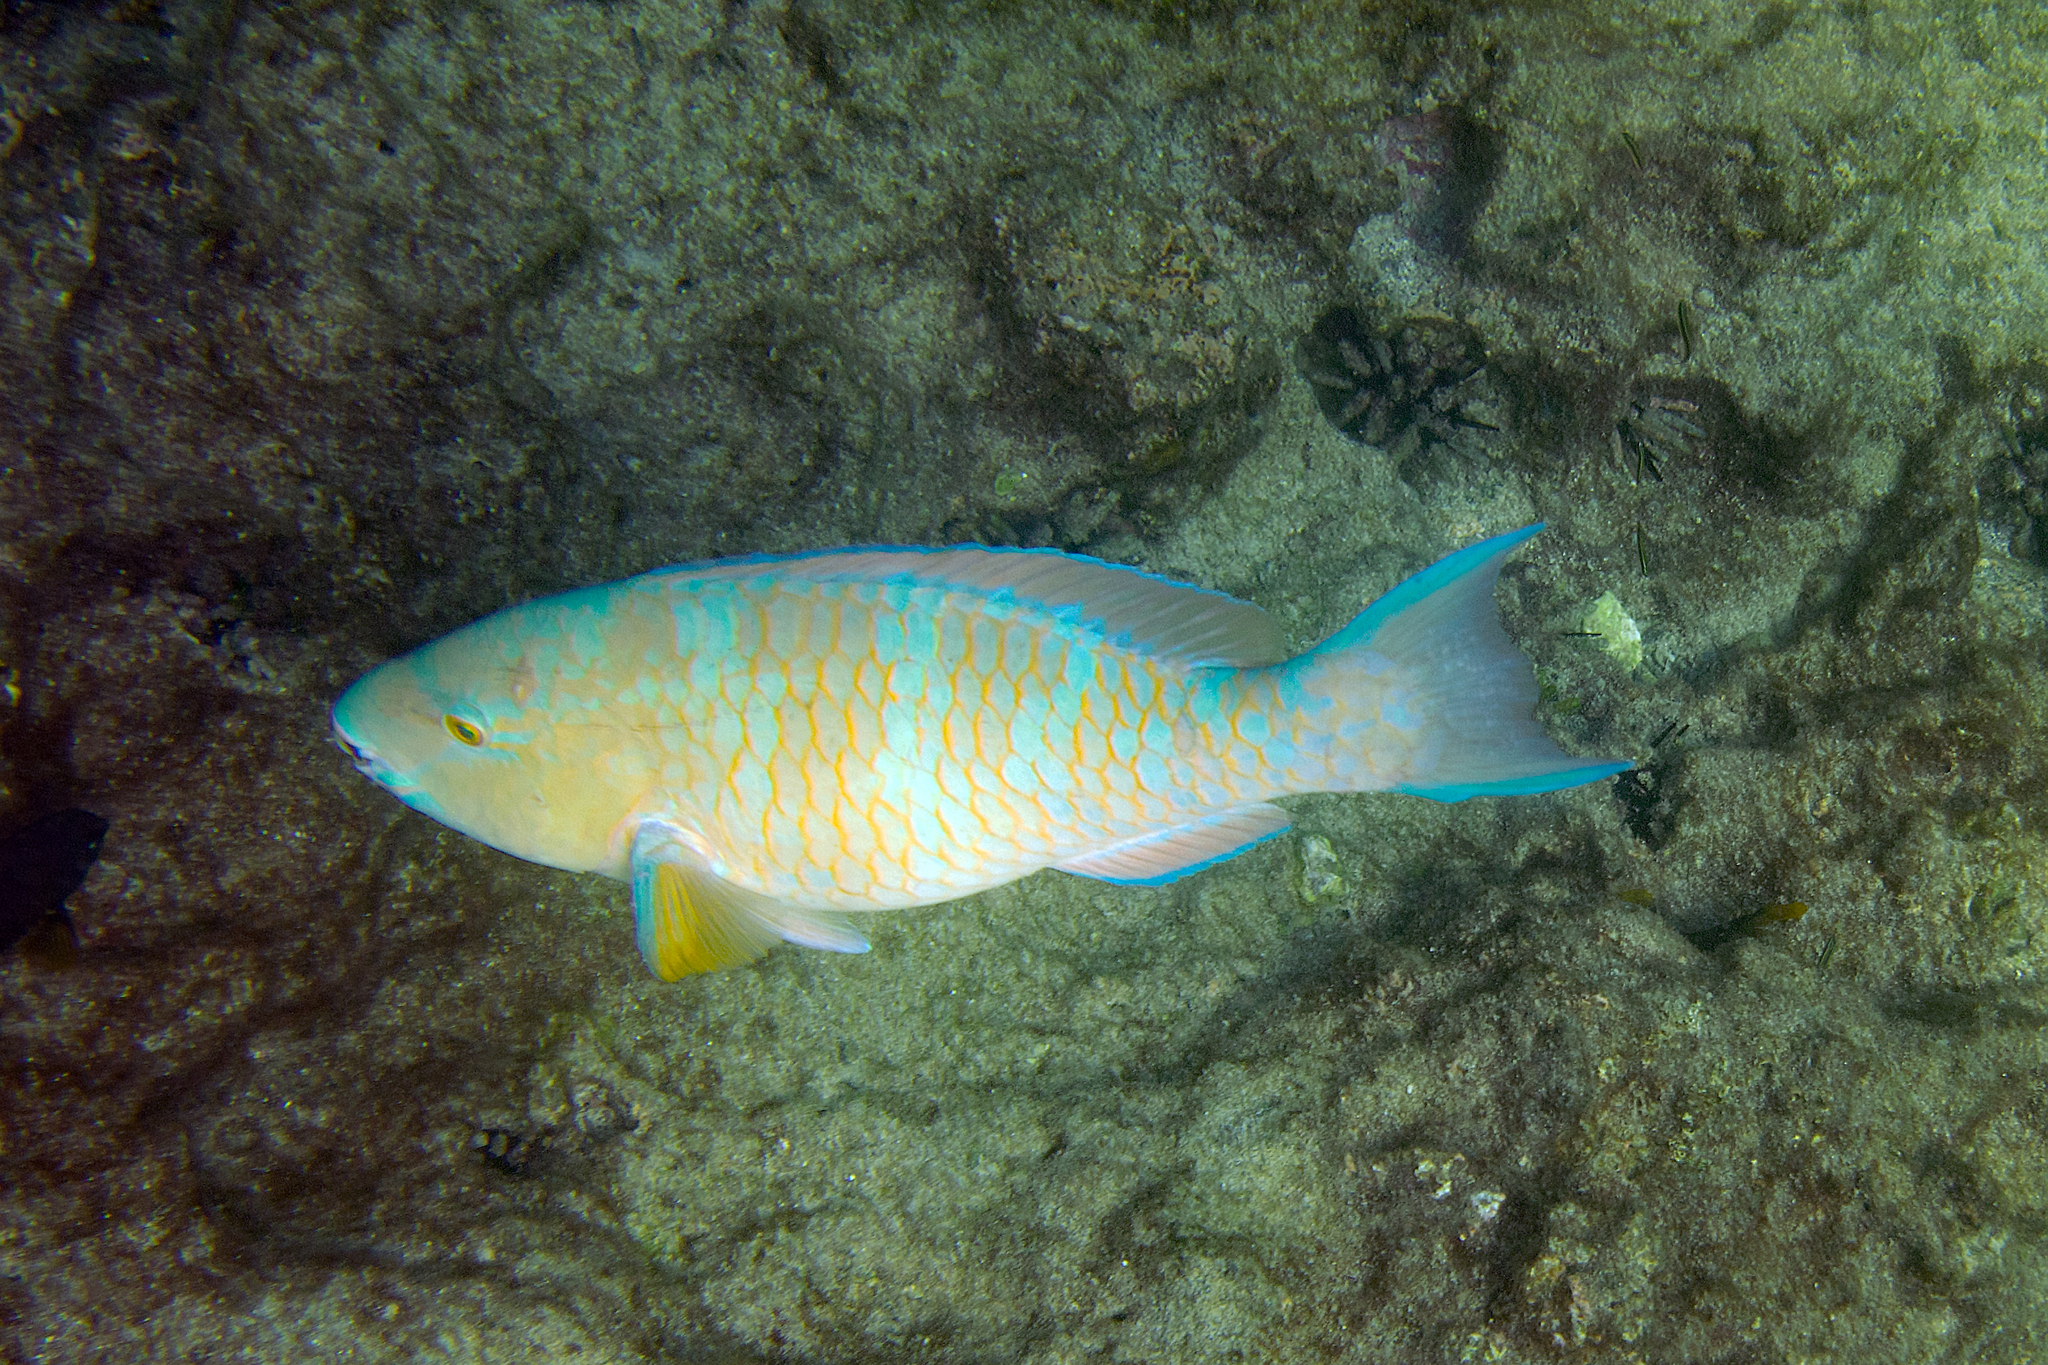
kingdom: Animalia
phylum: Chordata
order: Perciformes
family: Scaridae
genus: Scarus
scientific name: Scarus ghobban
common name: Blue-barred parrotfish
